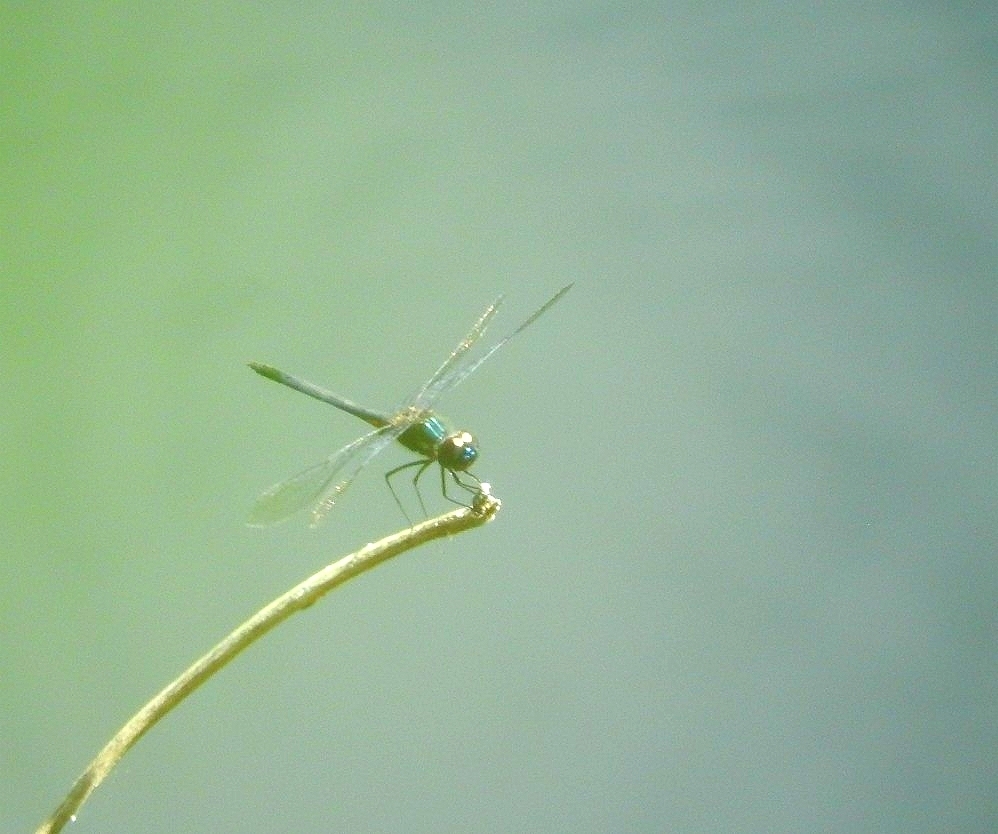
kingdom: Animalia
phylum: Arthropoda
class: Insecta
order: Odonata
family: Libellulidae
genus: Idiataphe
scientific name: Idiataphe cubensis
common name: Metallic pennant
